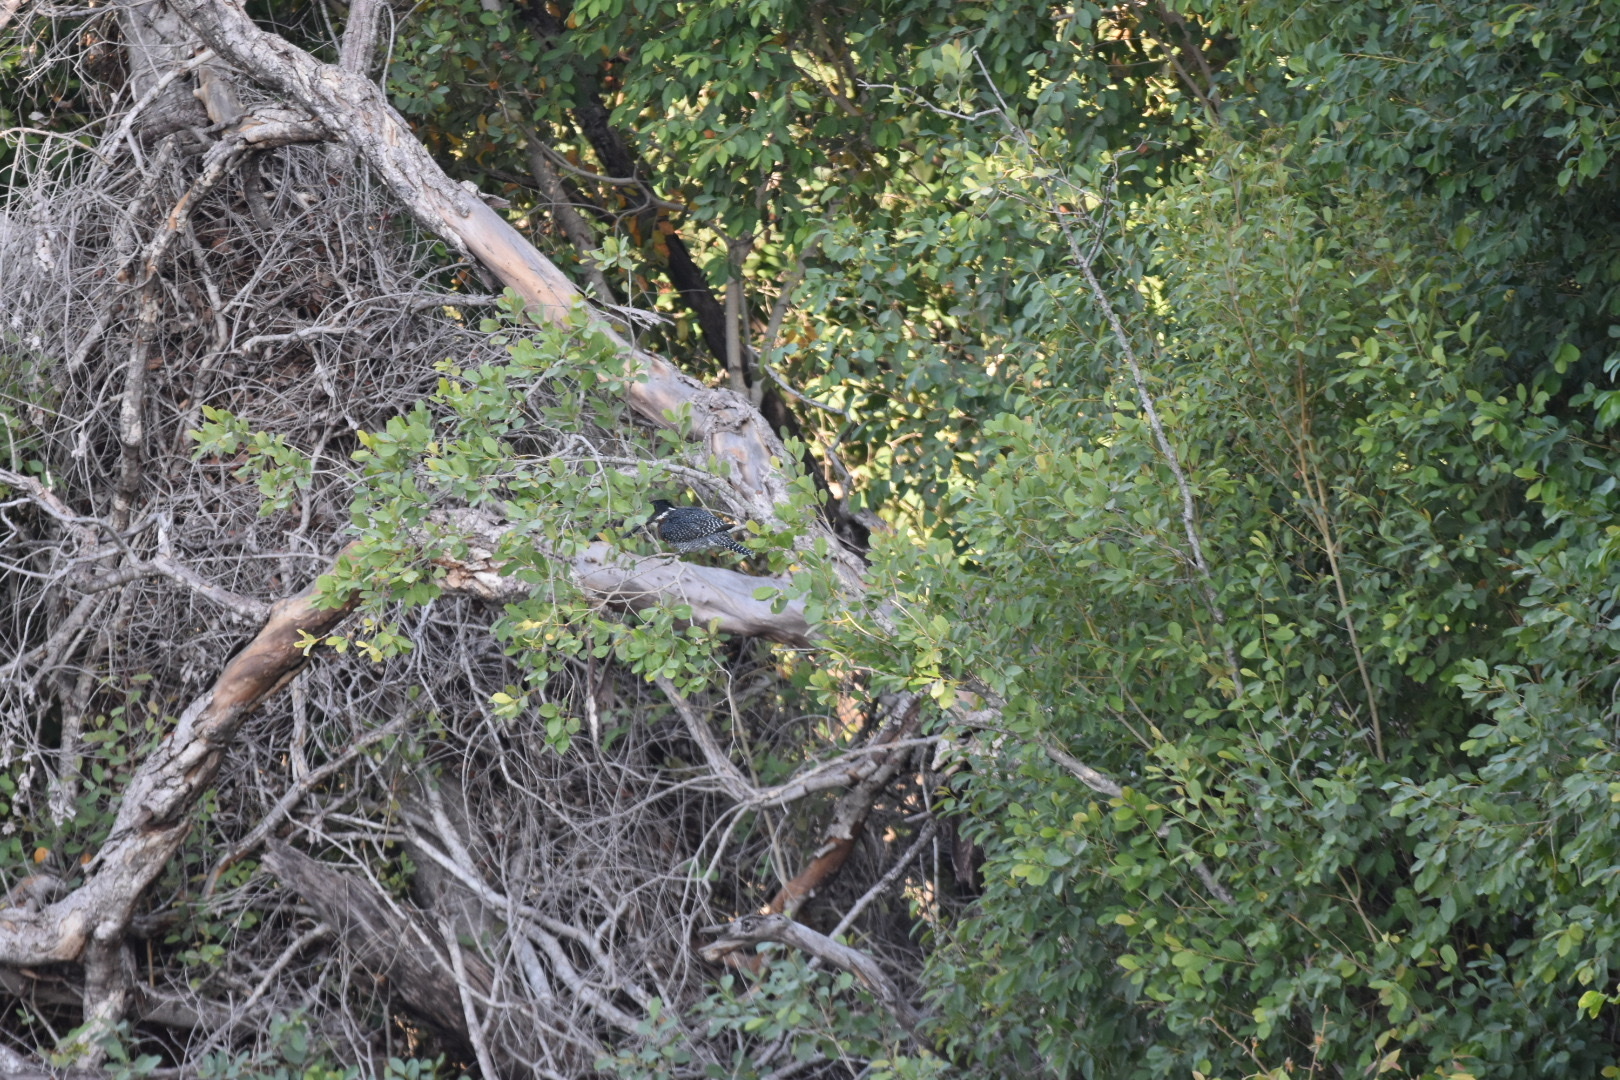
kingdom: Animalia
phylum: Chordata
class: Aves
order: Coraciiformes
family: Alcedinidae
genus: Megaceryle
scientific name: Megaceryle maxima
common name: Giant kingfisher
